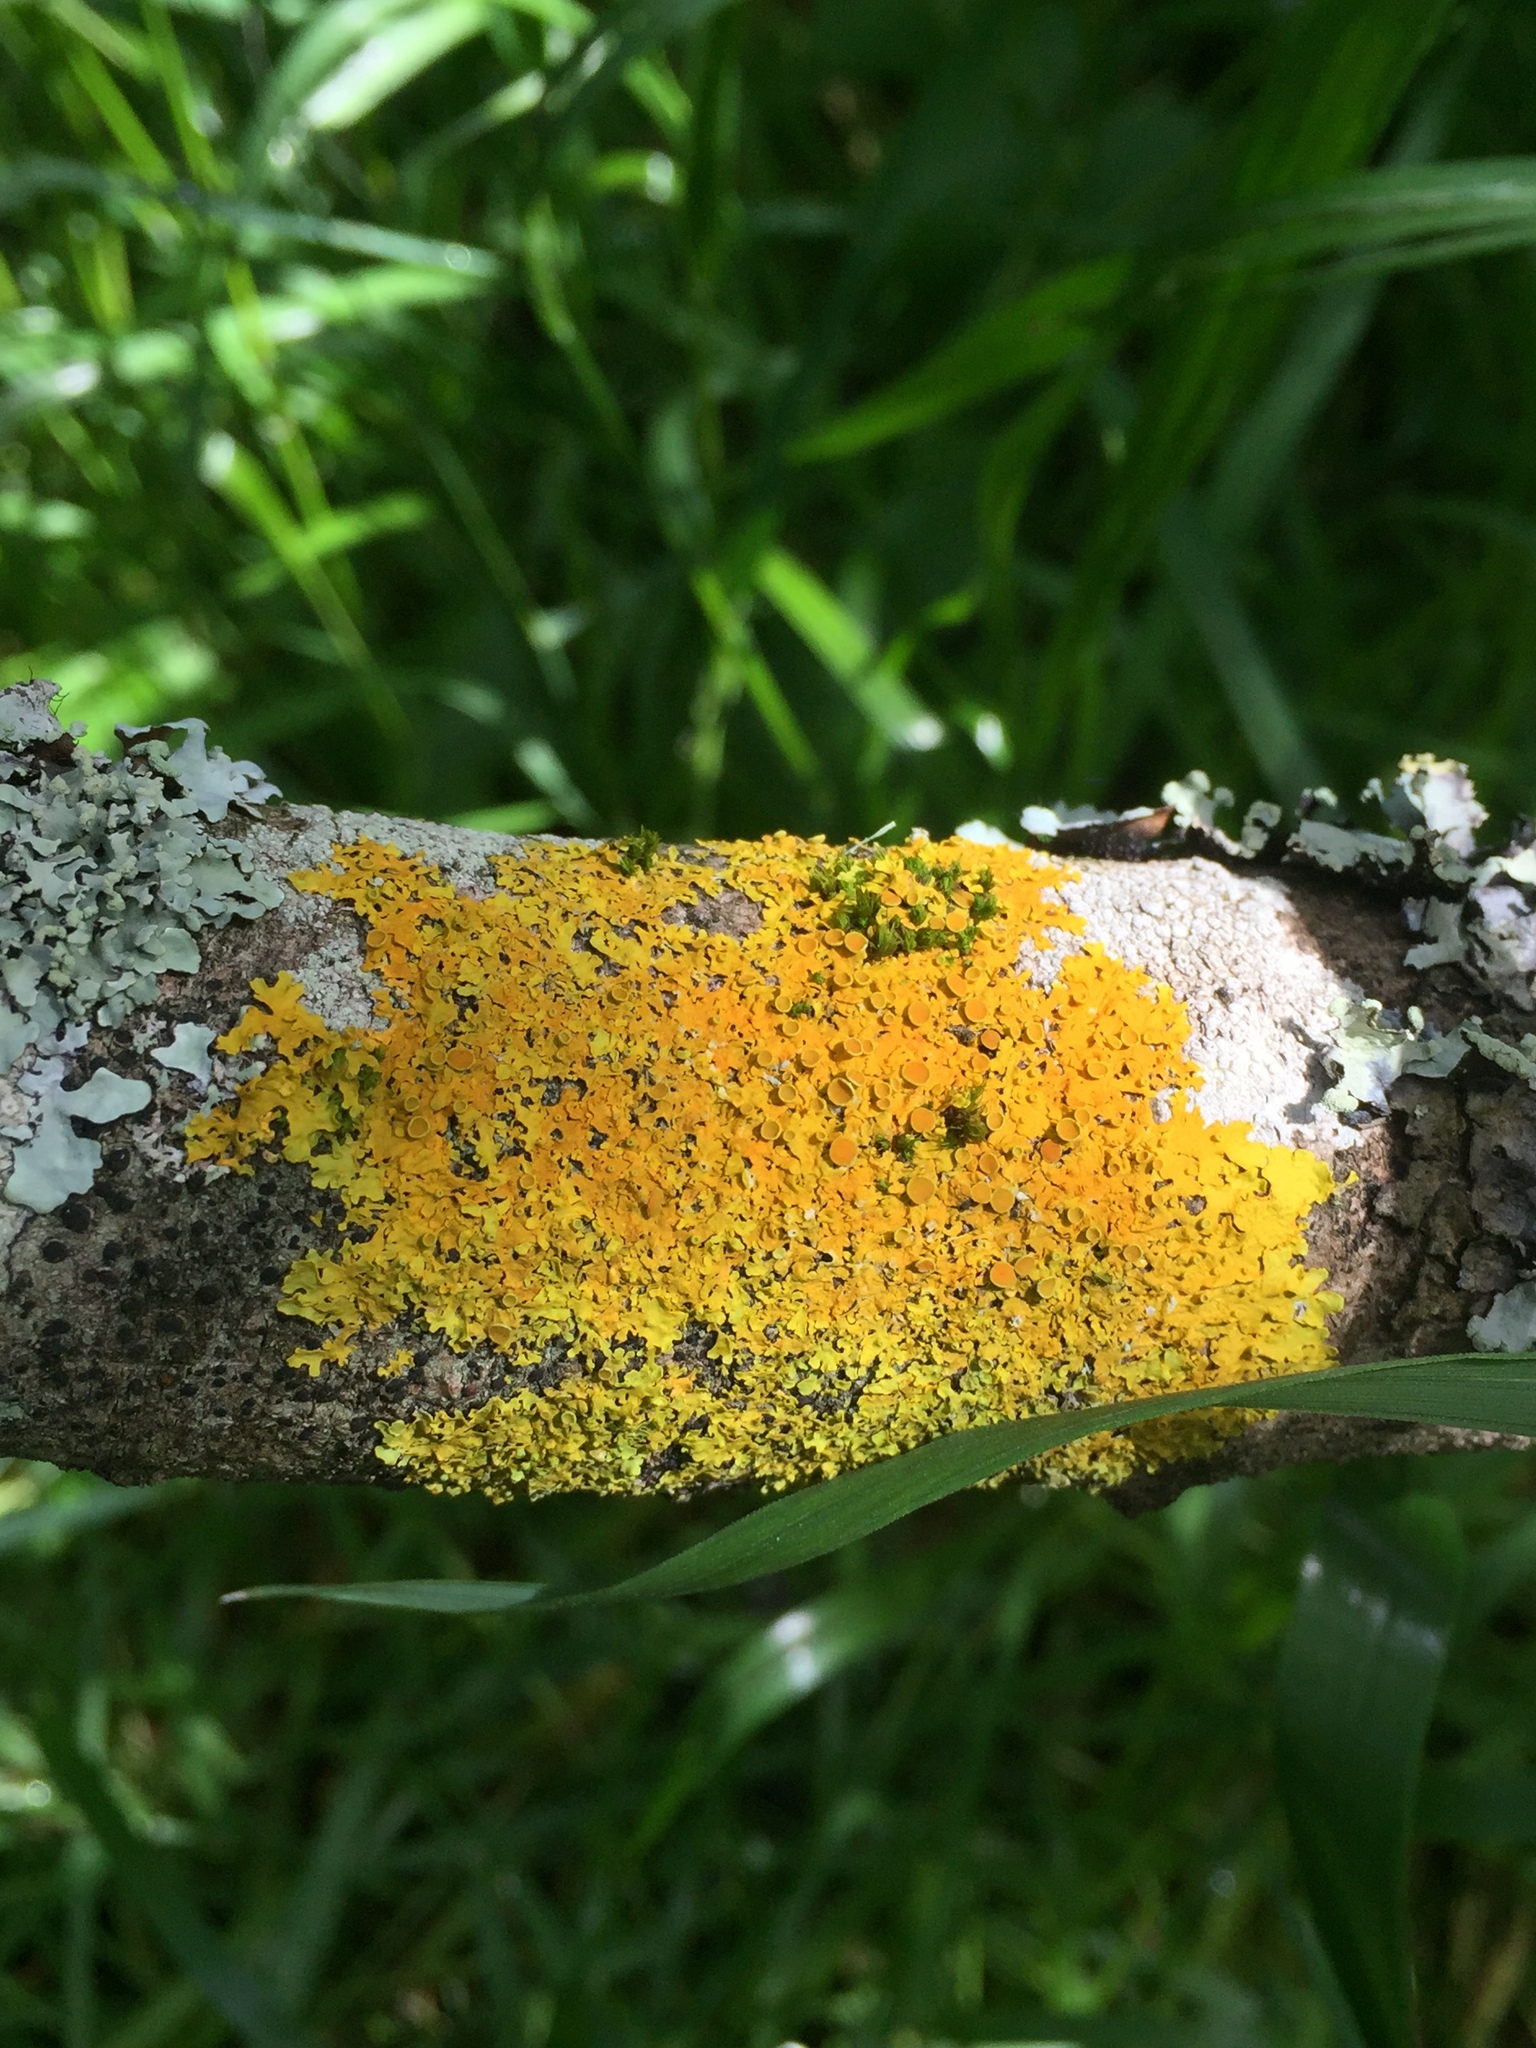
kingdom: Fungi
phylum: Ascomycota
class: Lecanoromycetes
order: Teloschistales
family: Teloschistaceae
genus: Xanthoria
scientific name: Xanthoria parietina
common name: Common orange lichen
